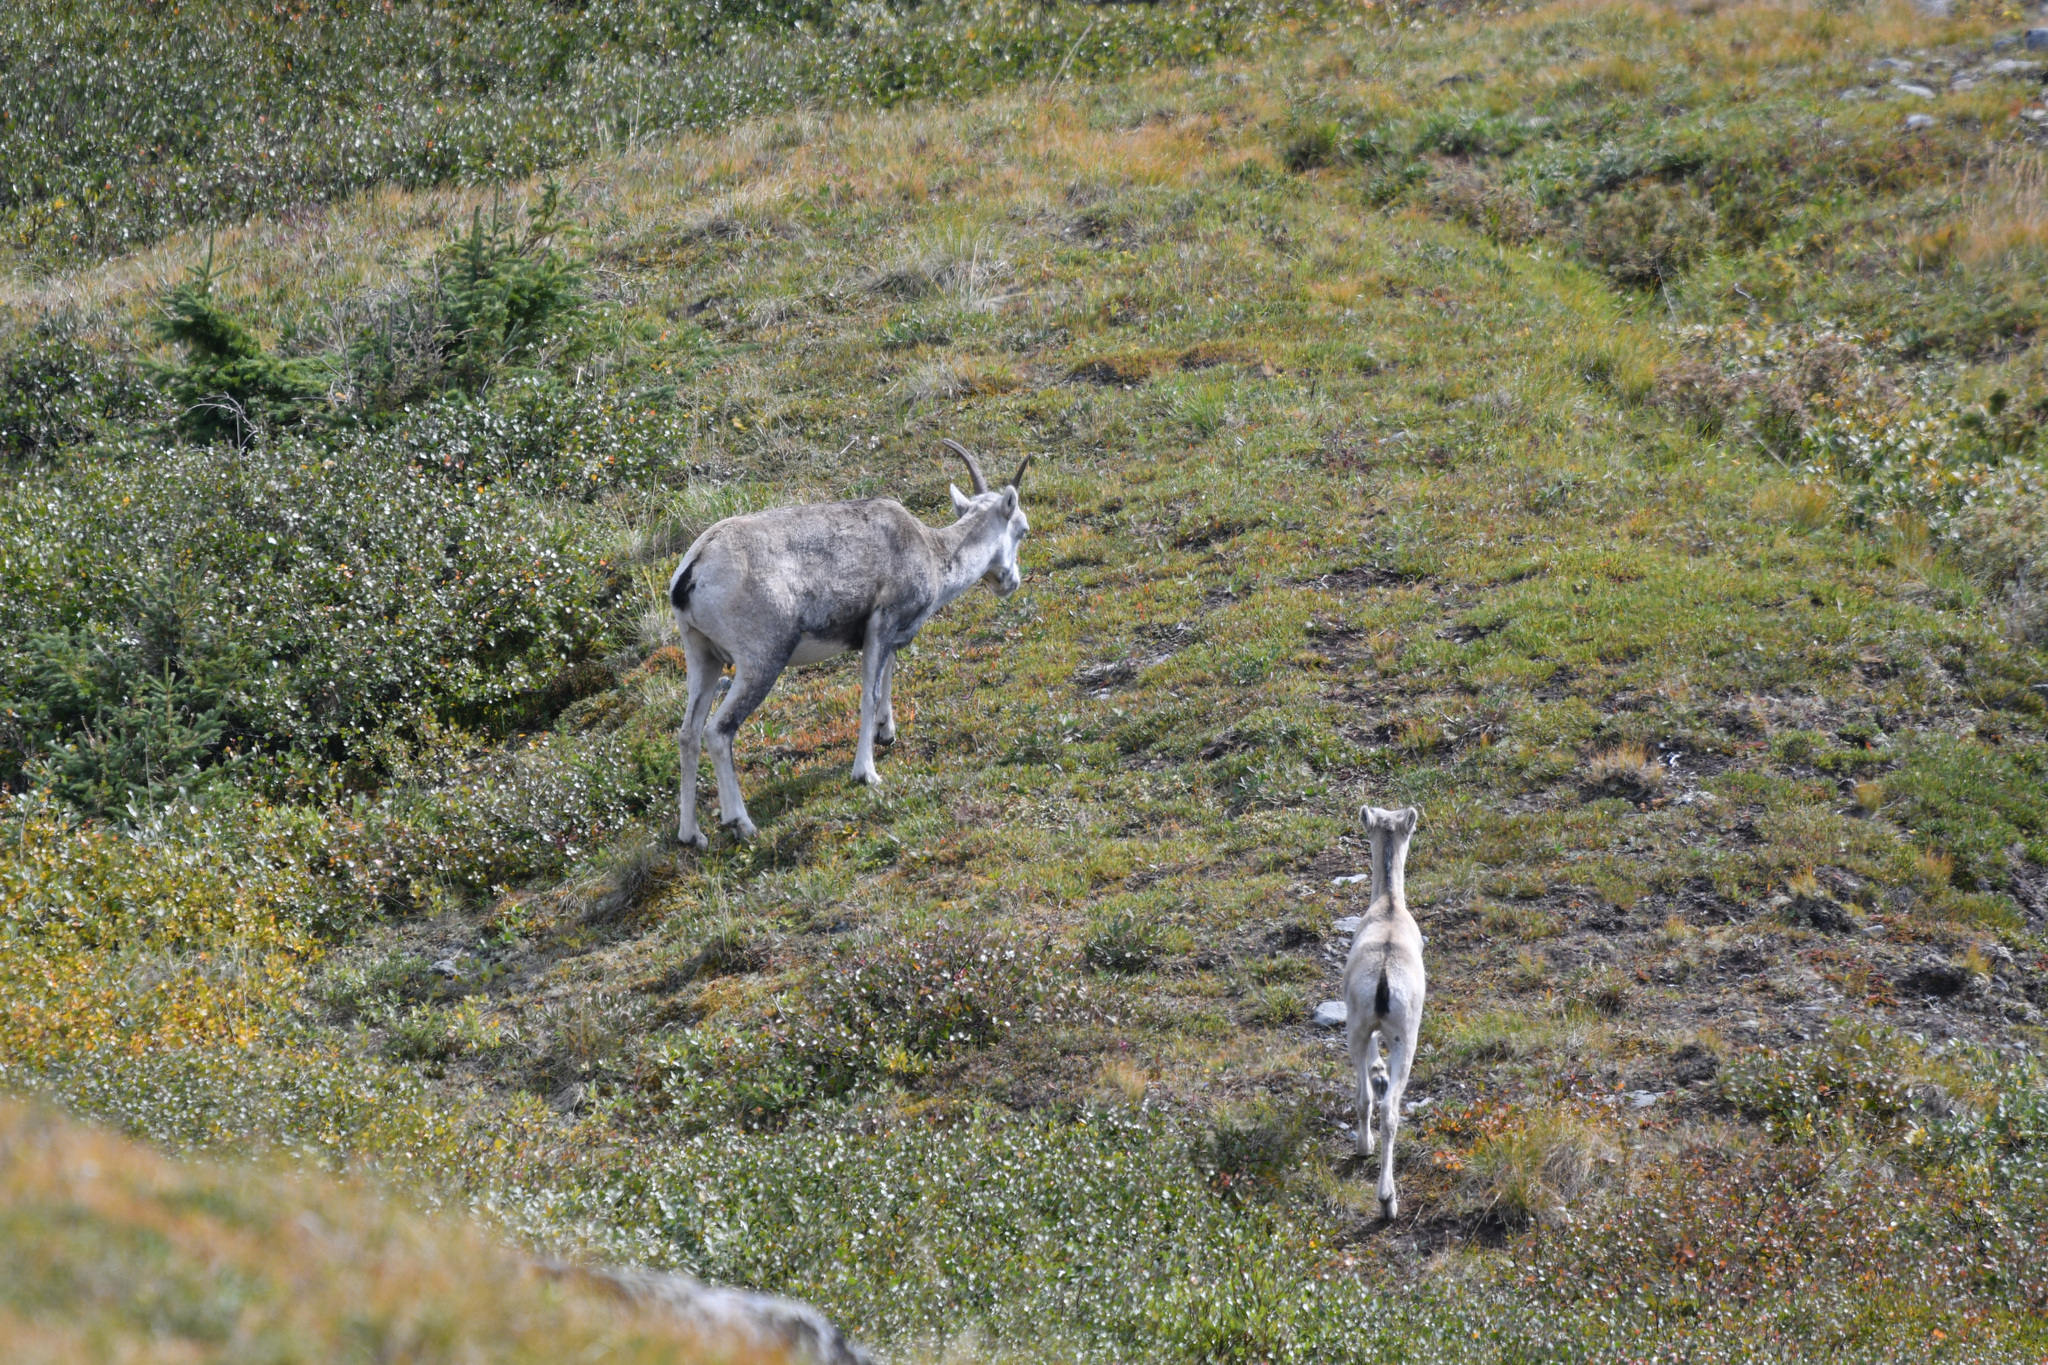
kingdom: Animalia
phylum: Chordata
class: Mammalia
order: Artiodactyla
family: Bovidae
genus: Ovis
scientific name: Ovis dalli
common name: Dall's sheep
